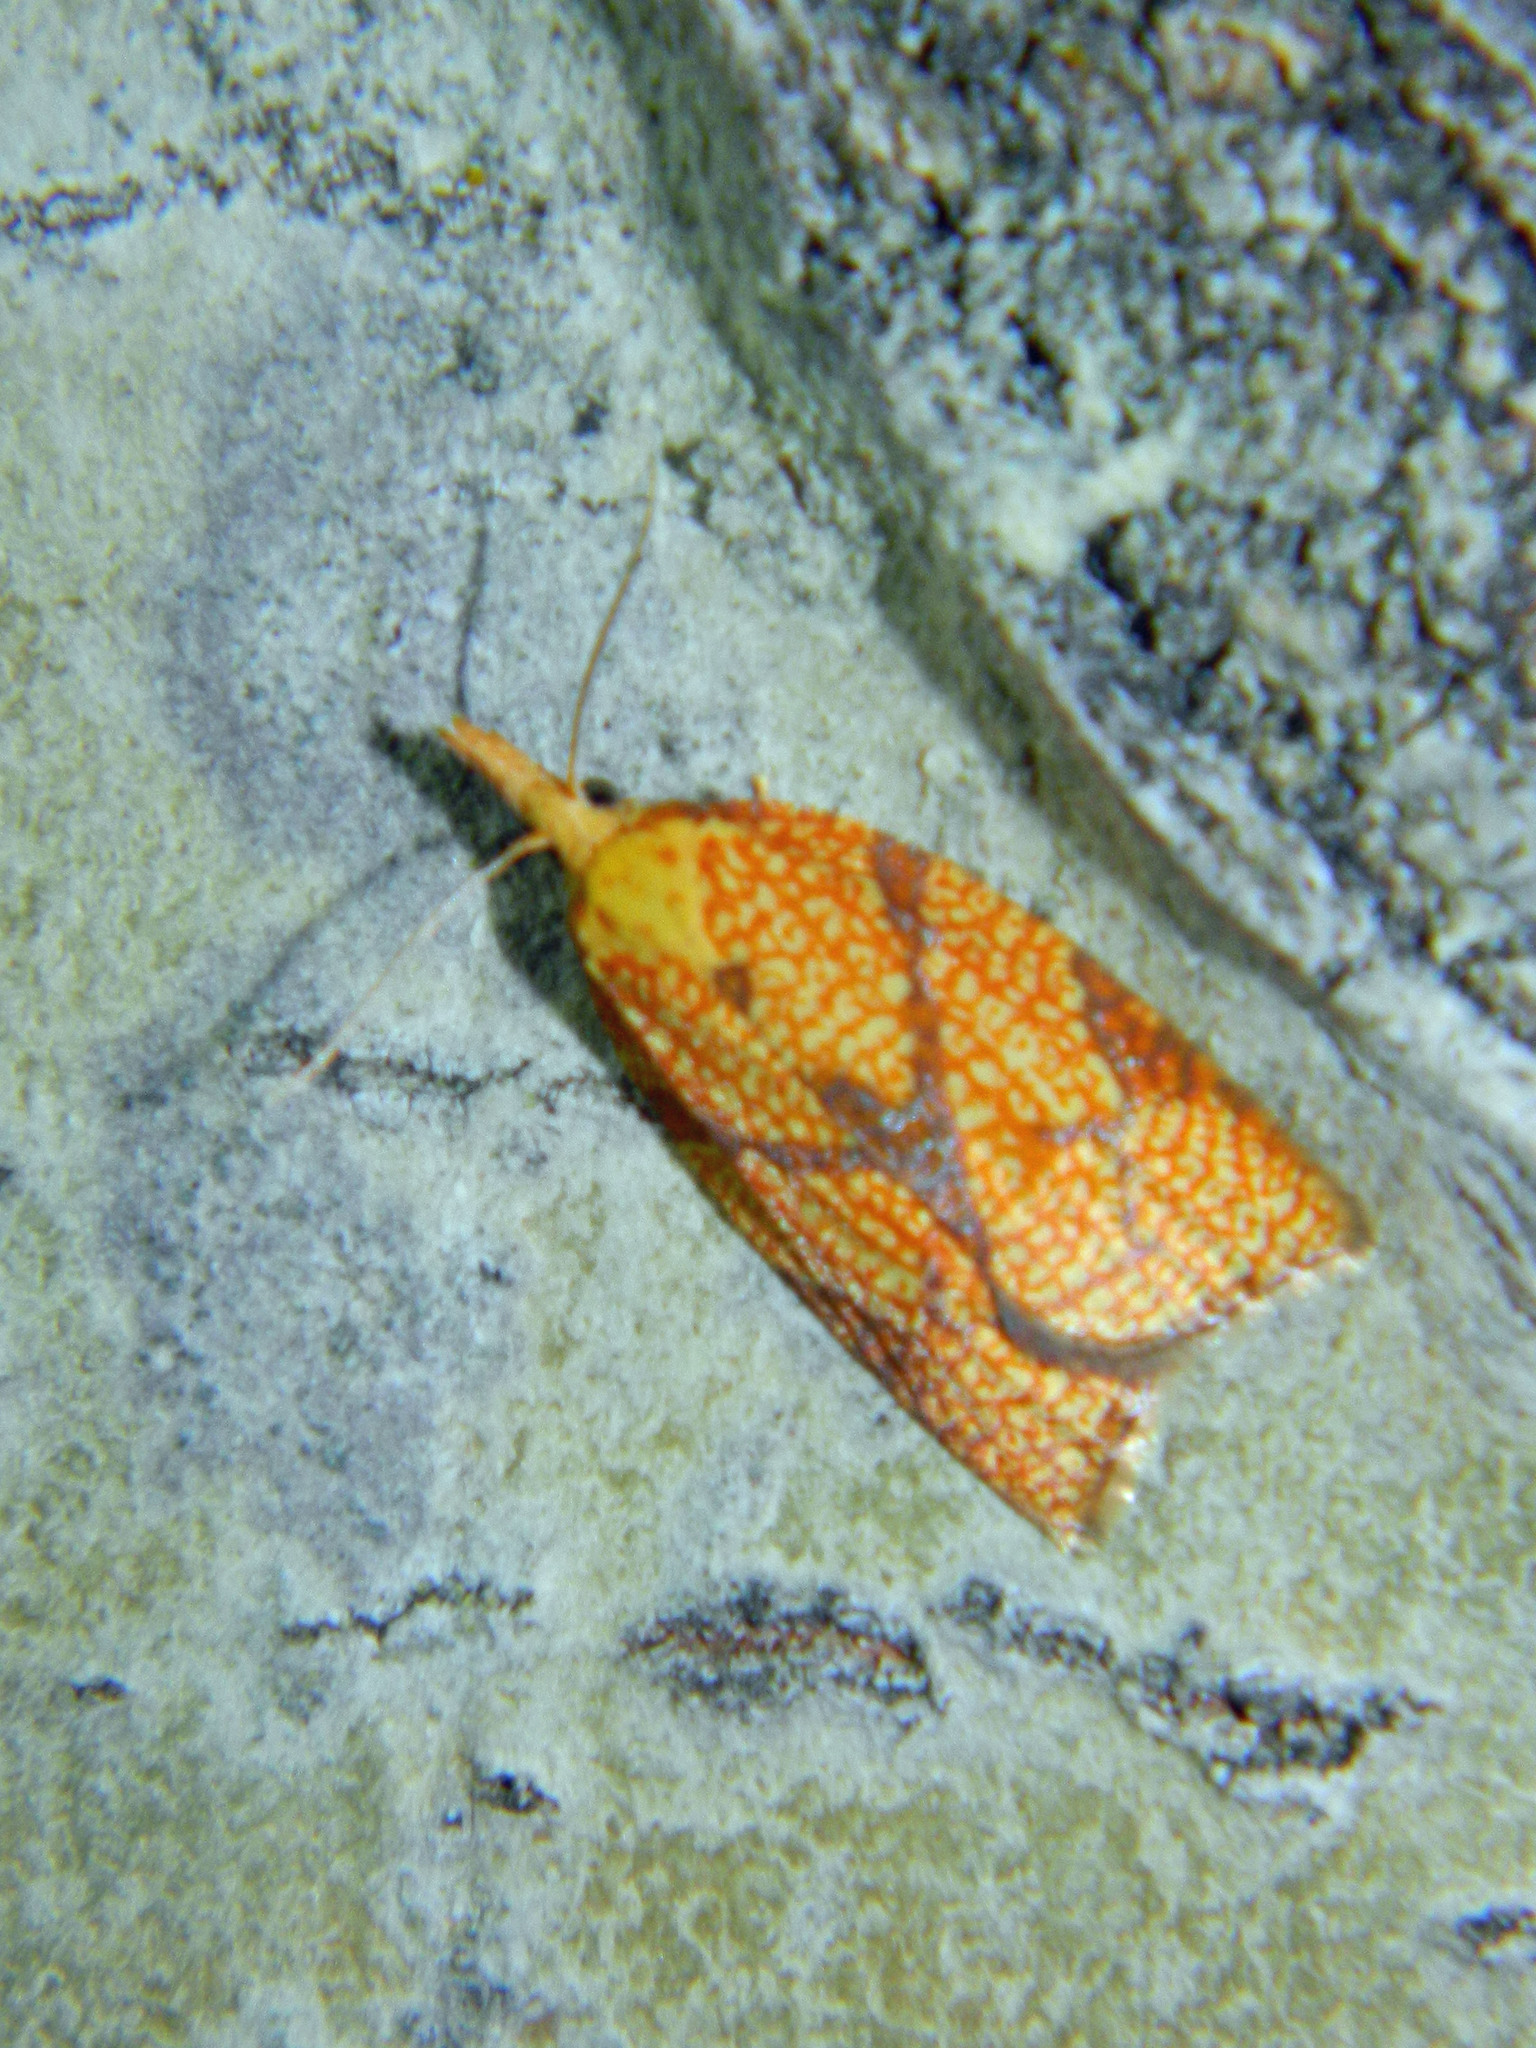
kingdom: Animalia
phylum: Arthropoda
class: Insecta
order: Lepidoptera
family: Tortricidae
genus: Cenopis
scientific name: Cenopis reticulatana
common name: Reticulated fruitworm moth
